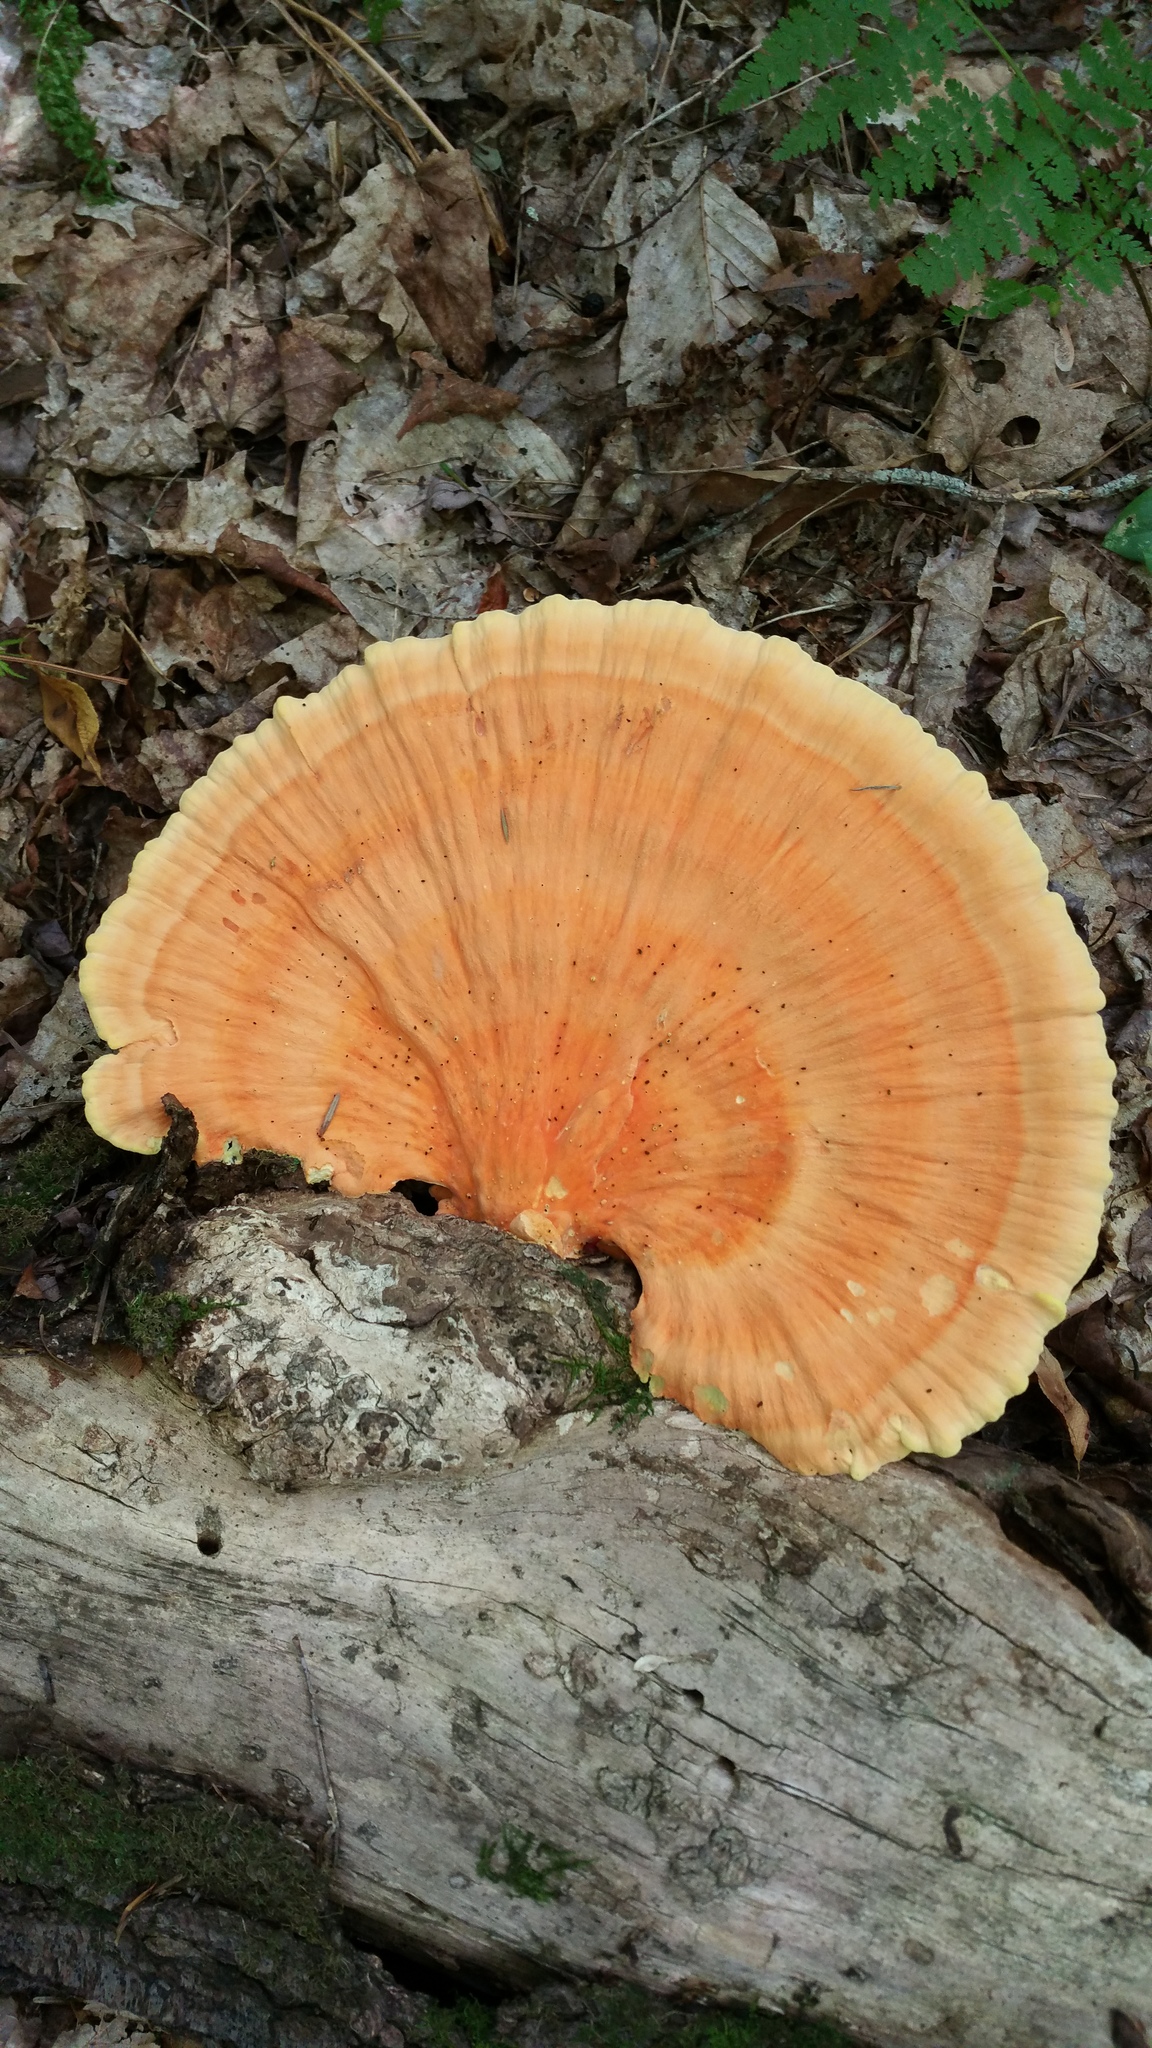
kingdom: Fungi
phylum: Basidiomycota
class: Agaricomycetes
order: Polyporales
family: Laetiporaceae
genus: Laetiporus
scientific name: Laetiporus sulphureus
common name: Chicken of the woods
